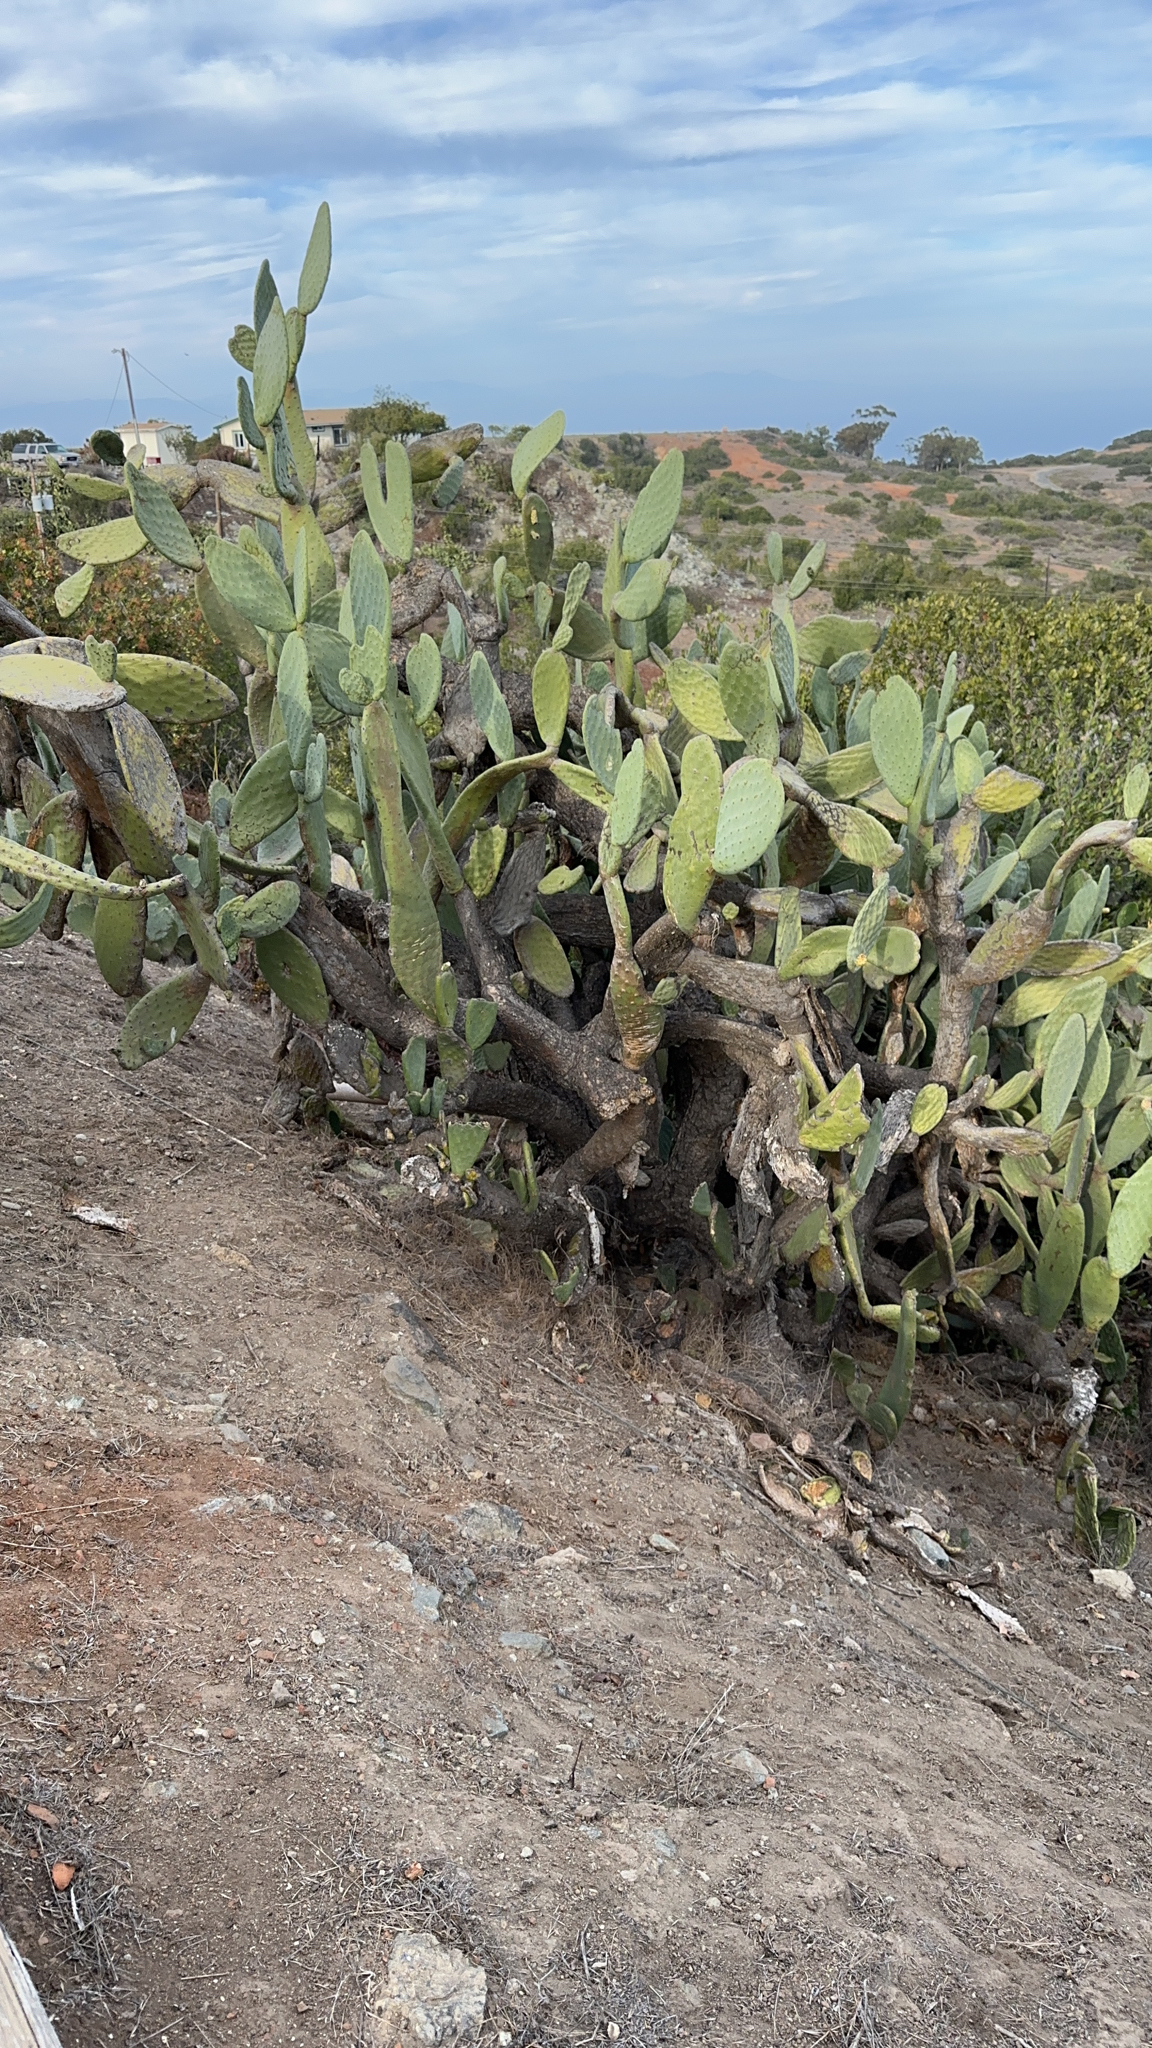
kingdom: Plantae
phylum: Tracheophyta
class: Magnoliopsida
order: Caryophyllales
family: Cactaceae
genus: Opuntia
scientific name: Opuntia ficus-indica
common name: Barbary fig
